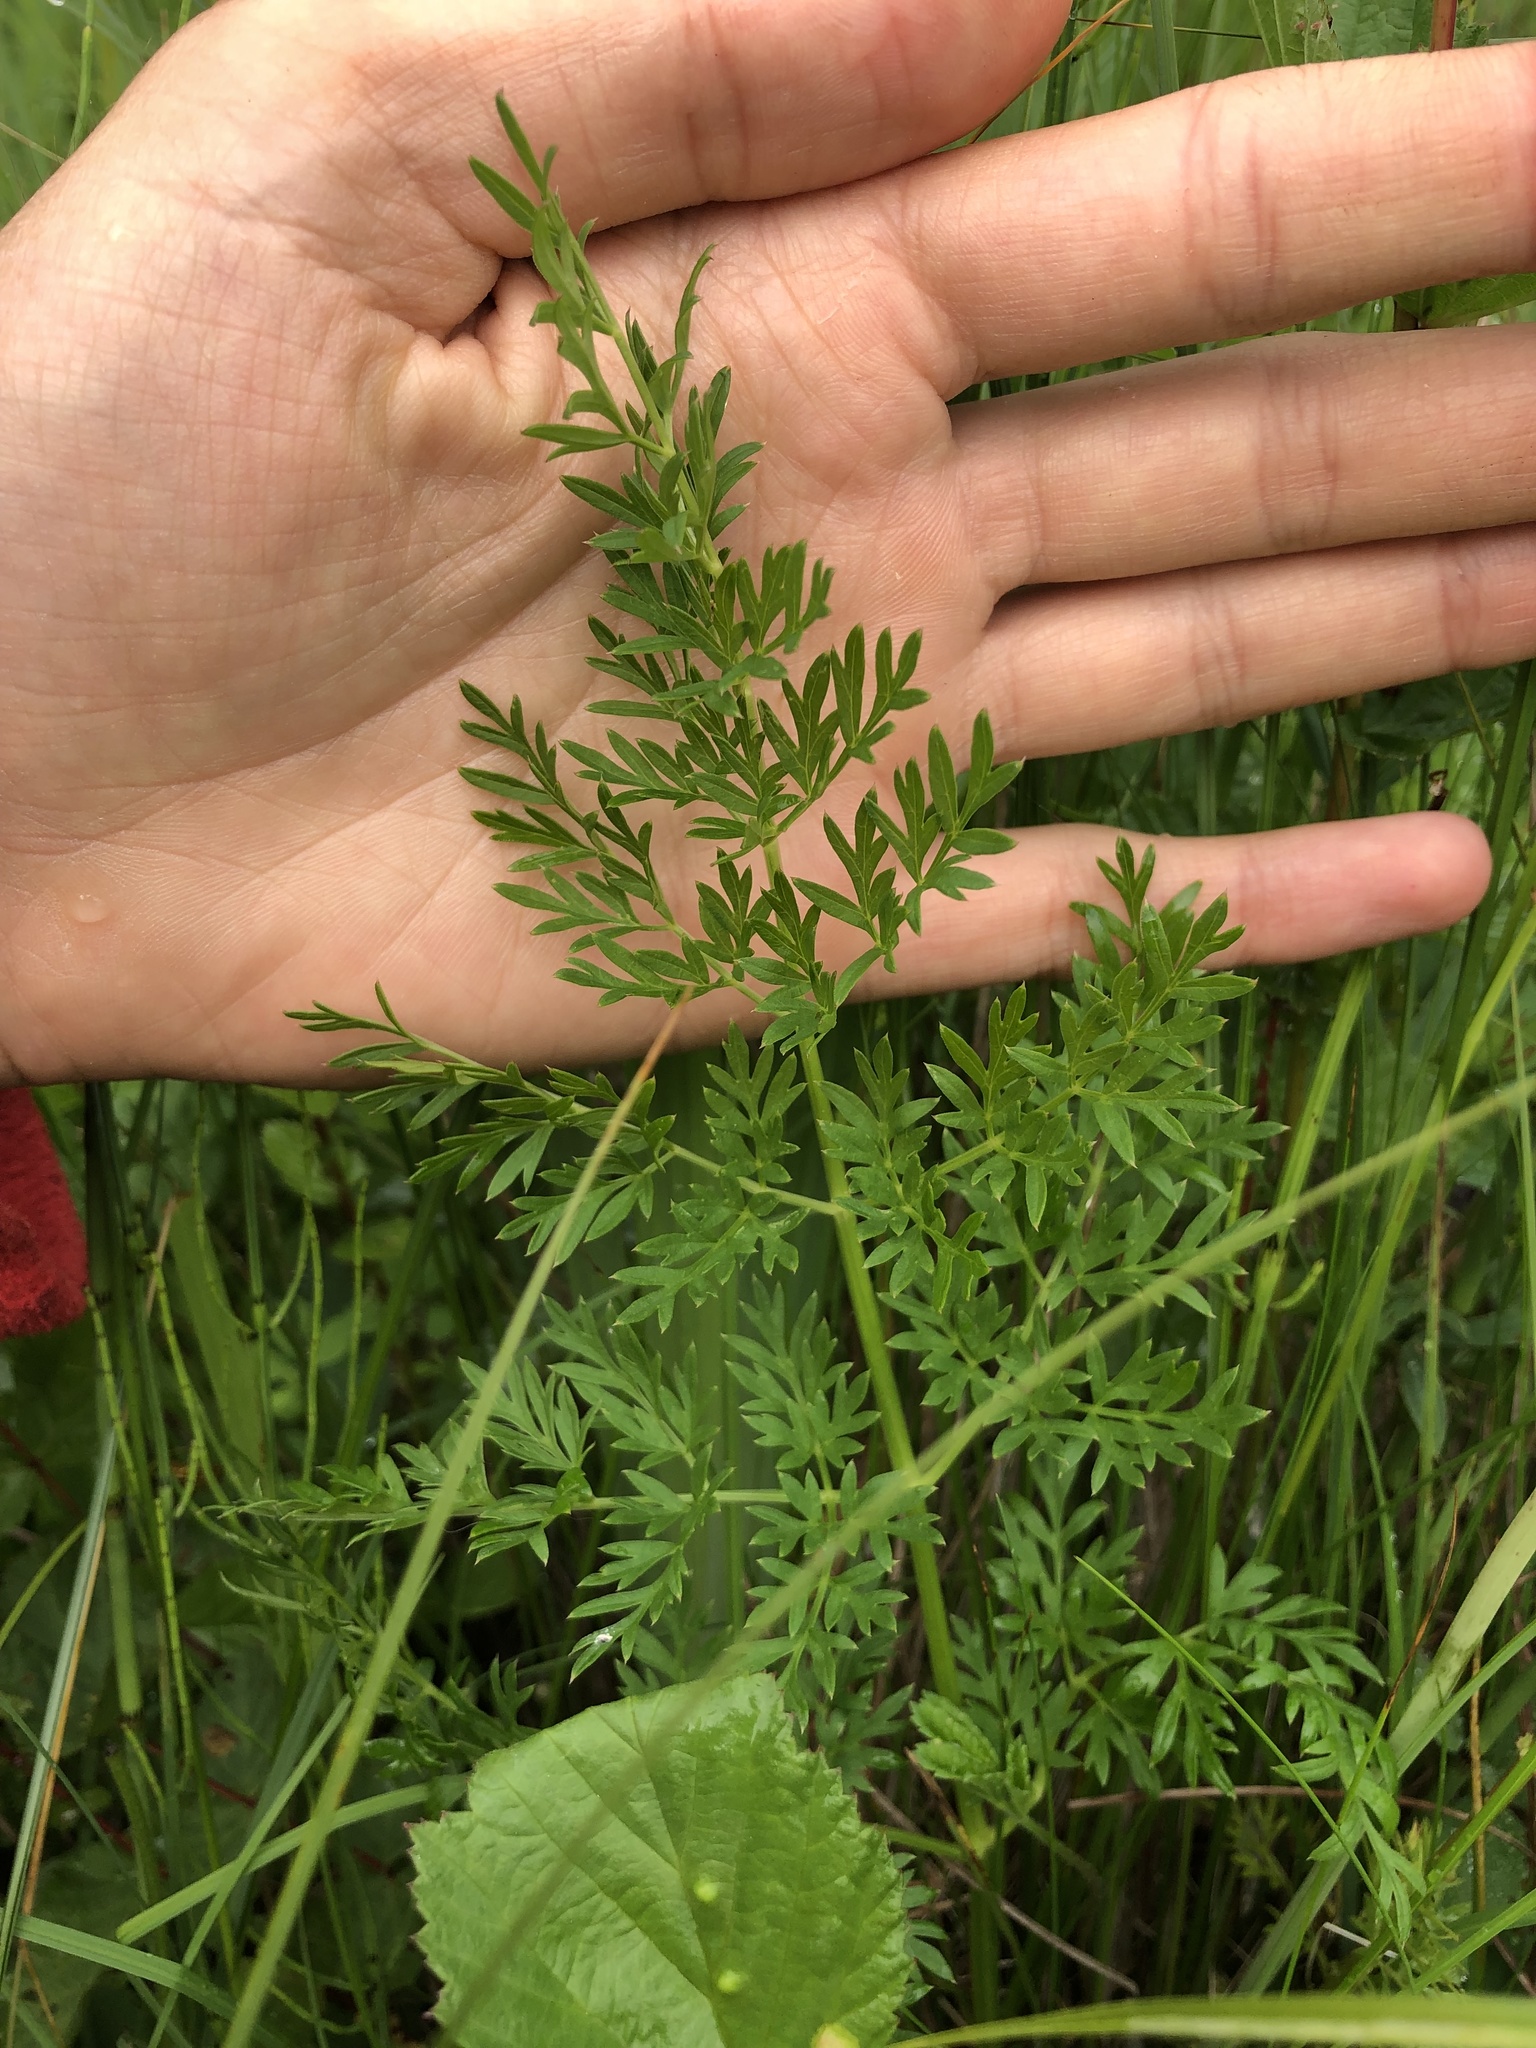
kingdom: Plantae
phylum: Tracheophyta
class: Magnoliopsida
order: Apiales
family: Apiaceae
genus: Selinum
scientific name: Selinum carvifolia
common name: Cambridge milk-parsley
